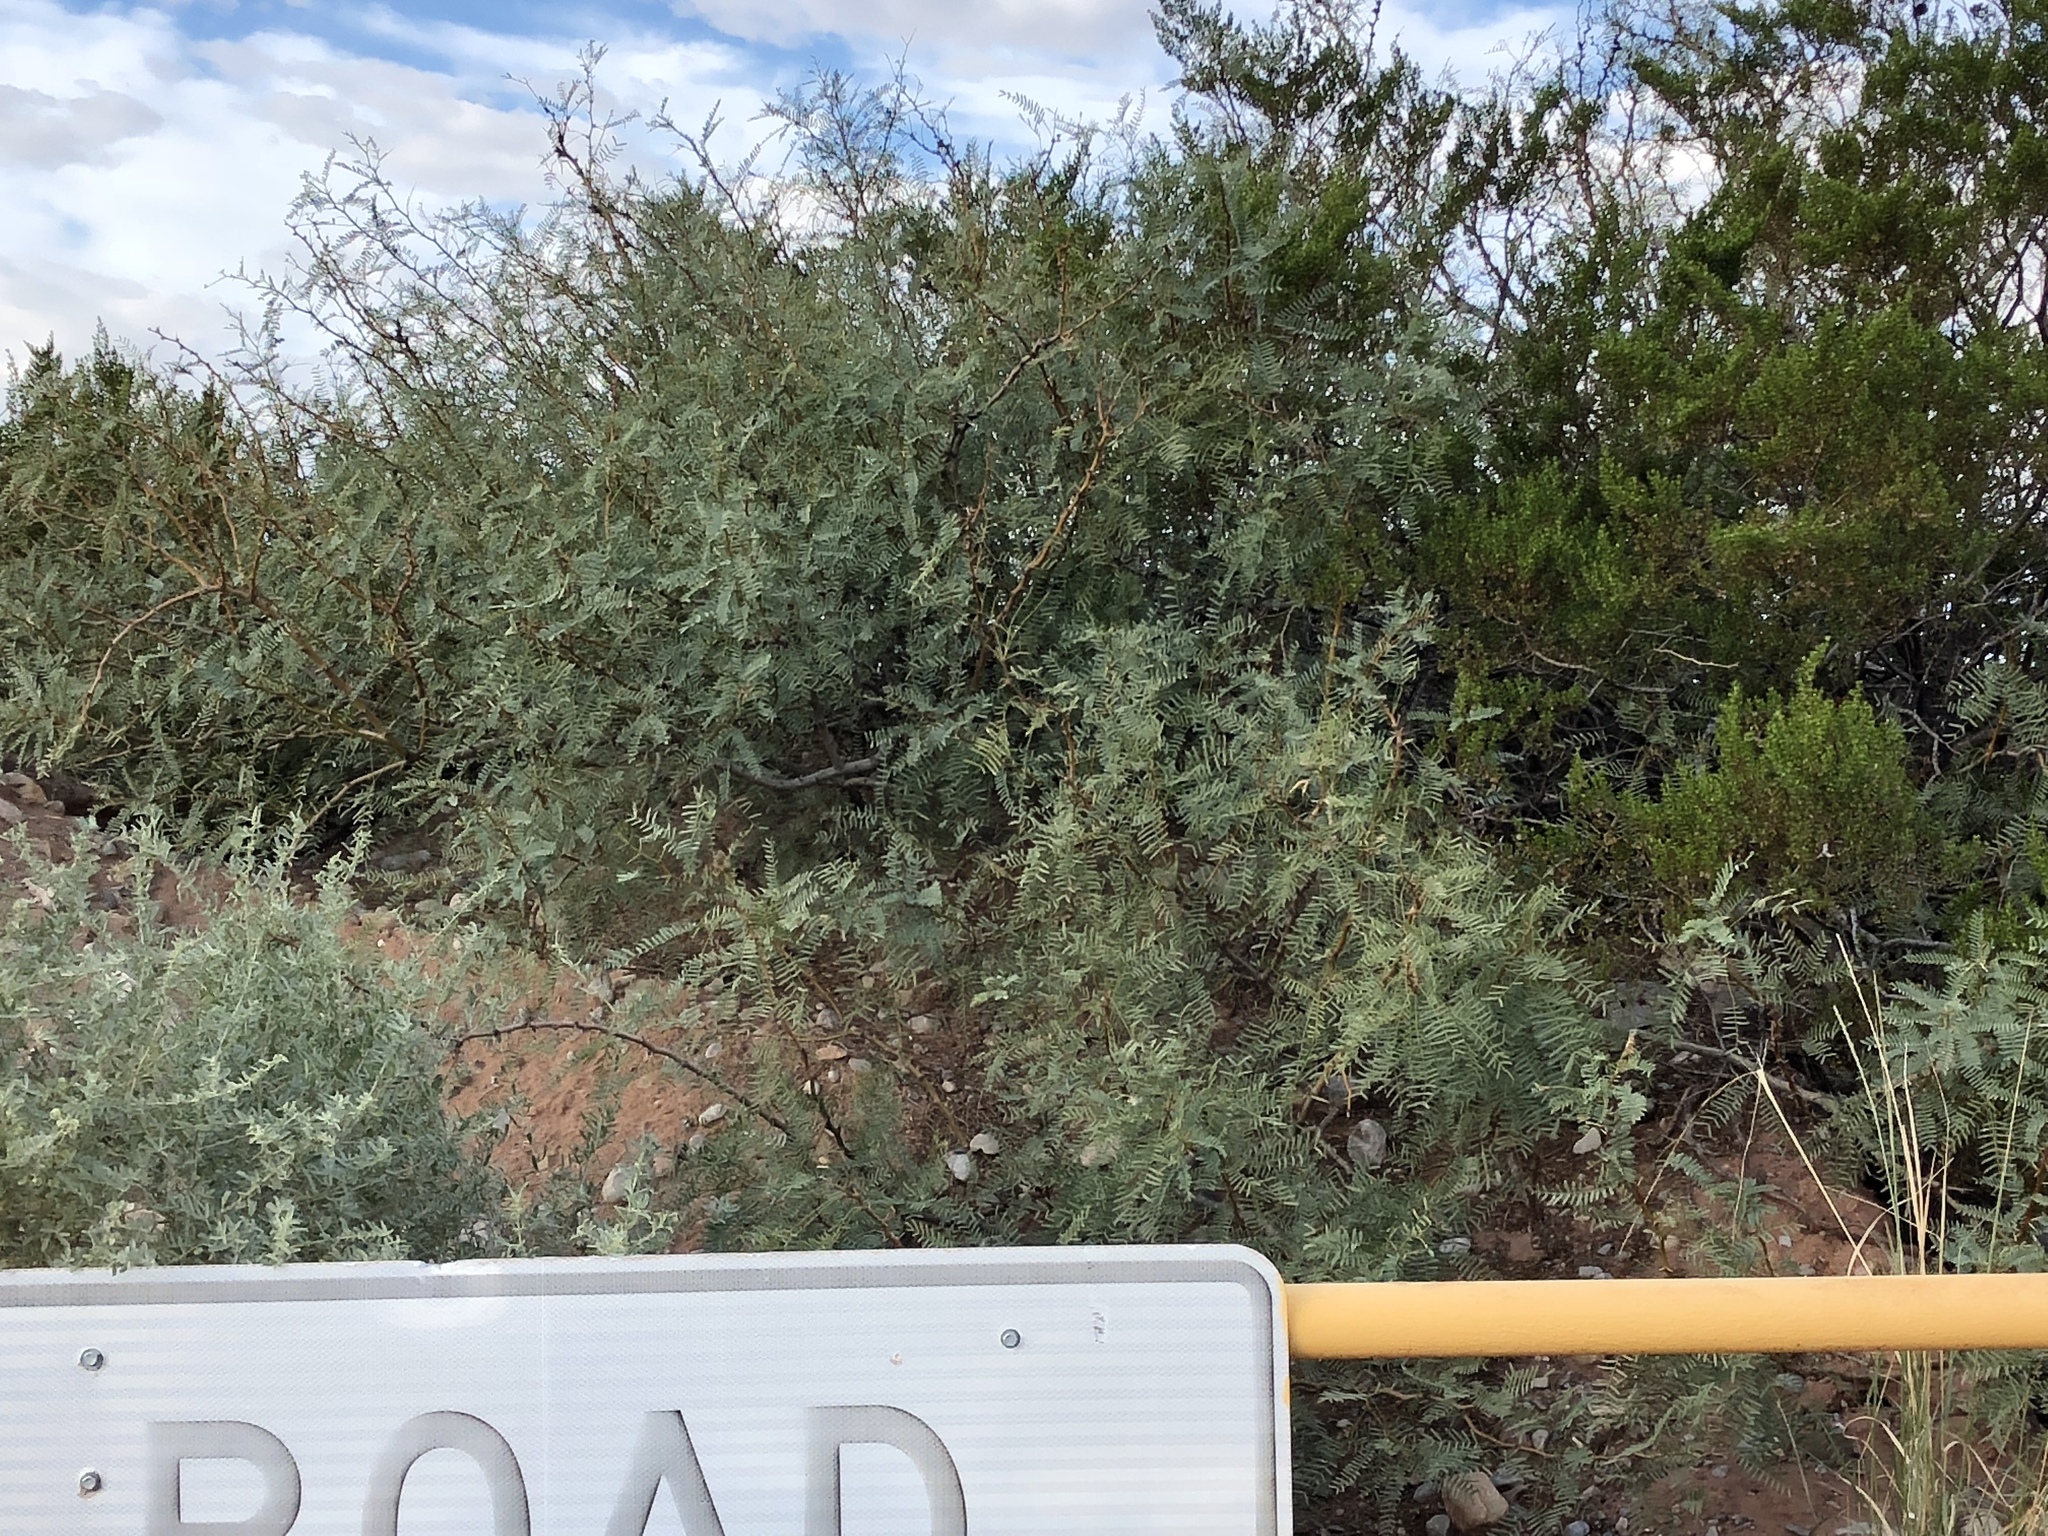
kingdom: Plantae
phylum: Tracheophyta
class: Magnoliopsida
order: Fabales
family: Fabaceae
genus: Prosopis
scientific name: Prosopis glandulosa
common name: Honey mesquite
